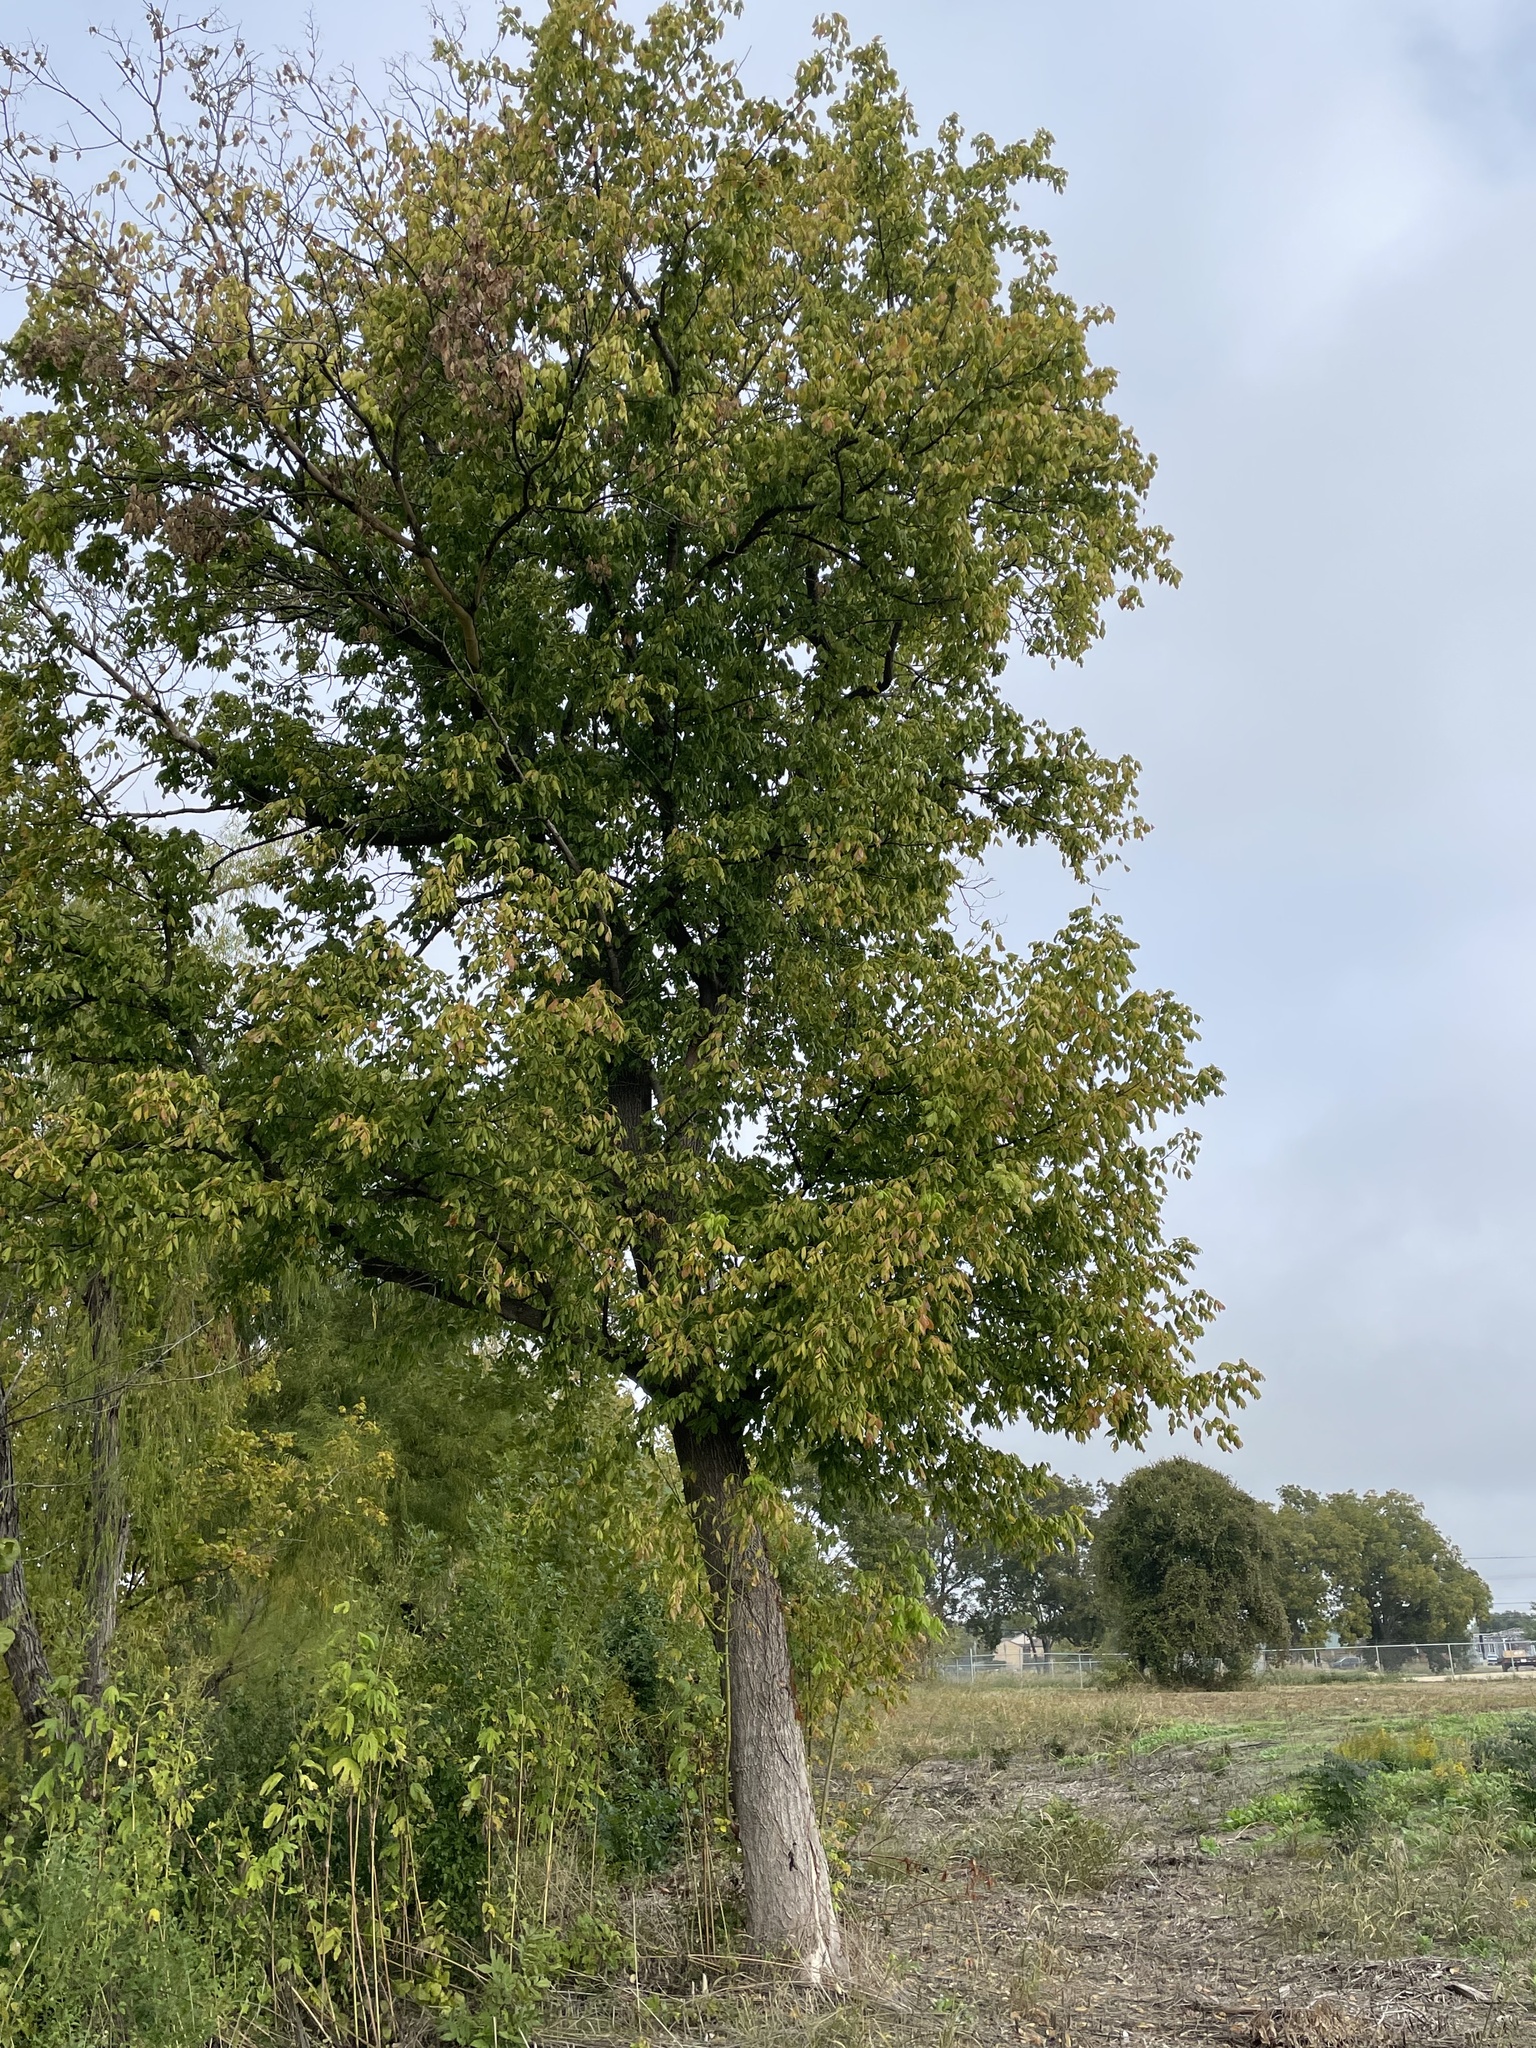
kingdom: Plantae
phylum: Tracheophyta
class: Magnoliopsida
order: Sapindales
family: Sapindaceae
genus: Acer
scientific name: Acer negundo
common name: Ashleaf maple
